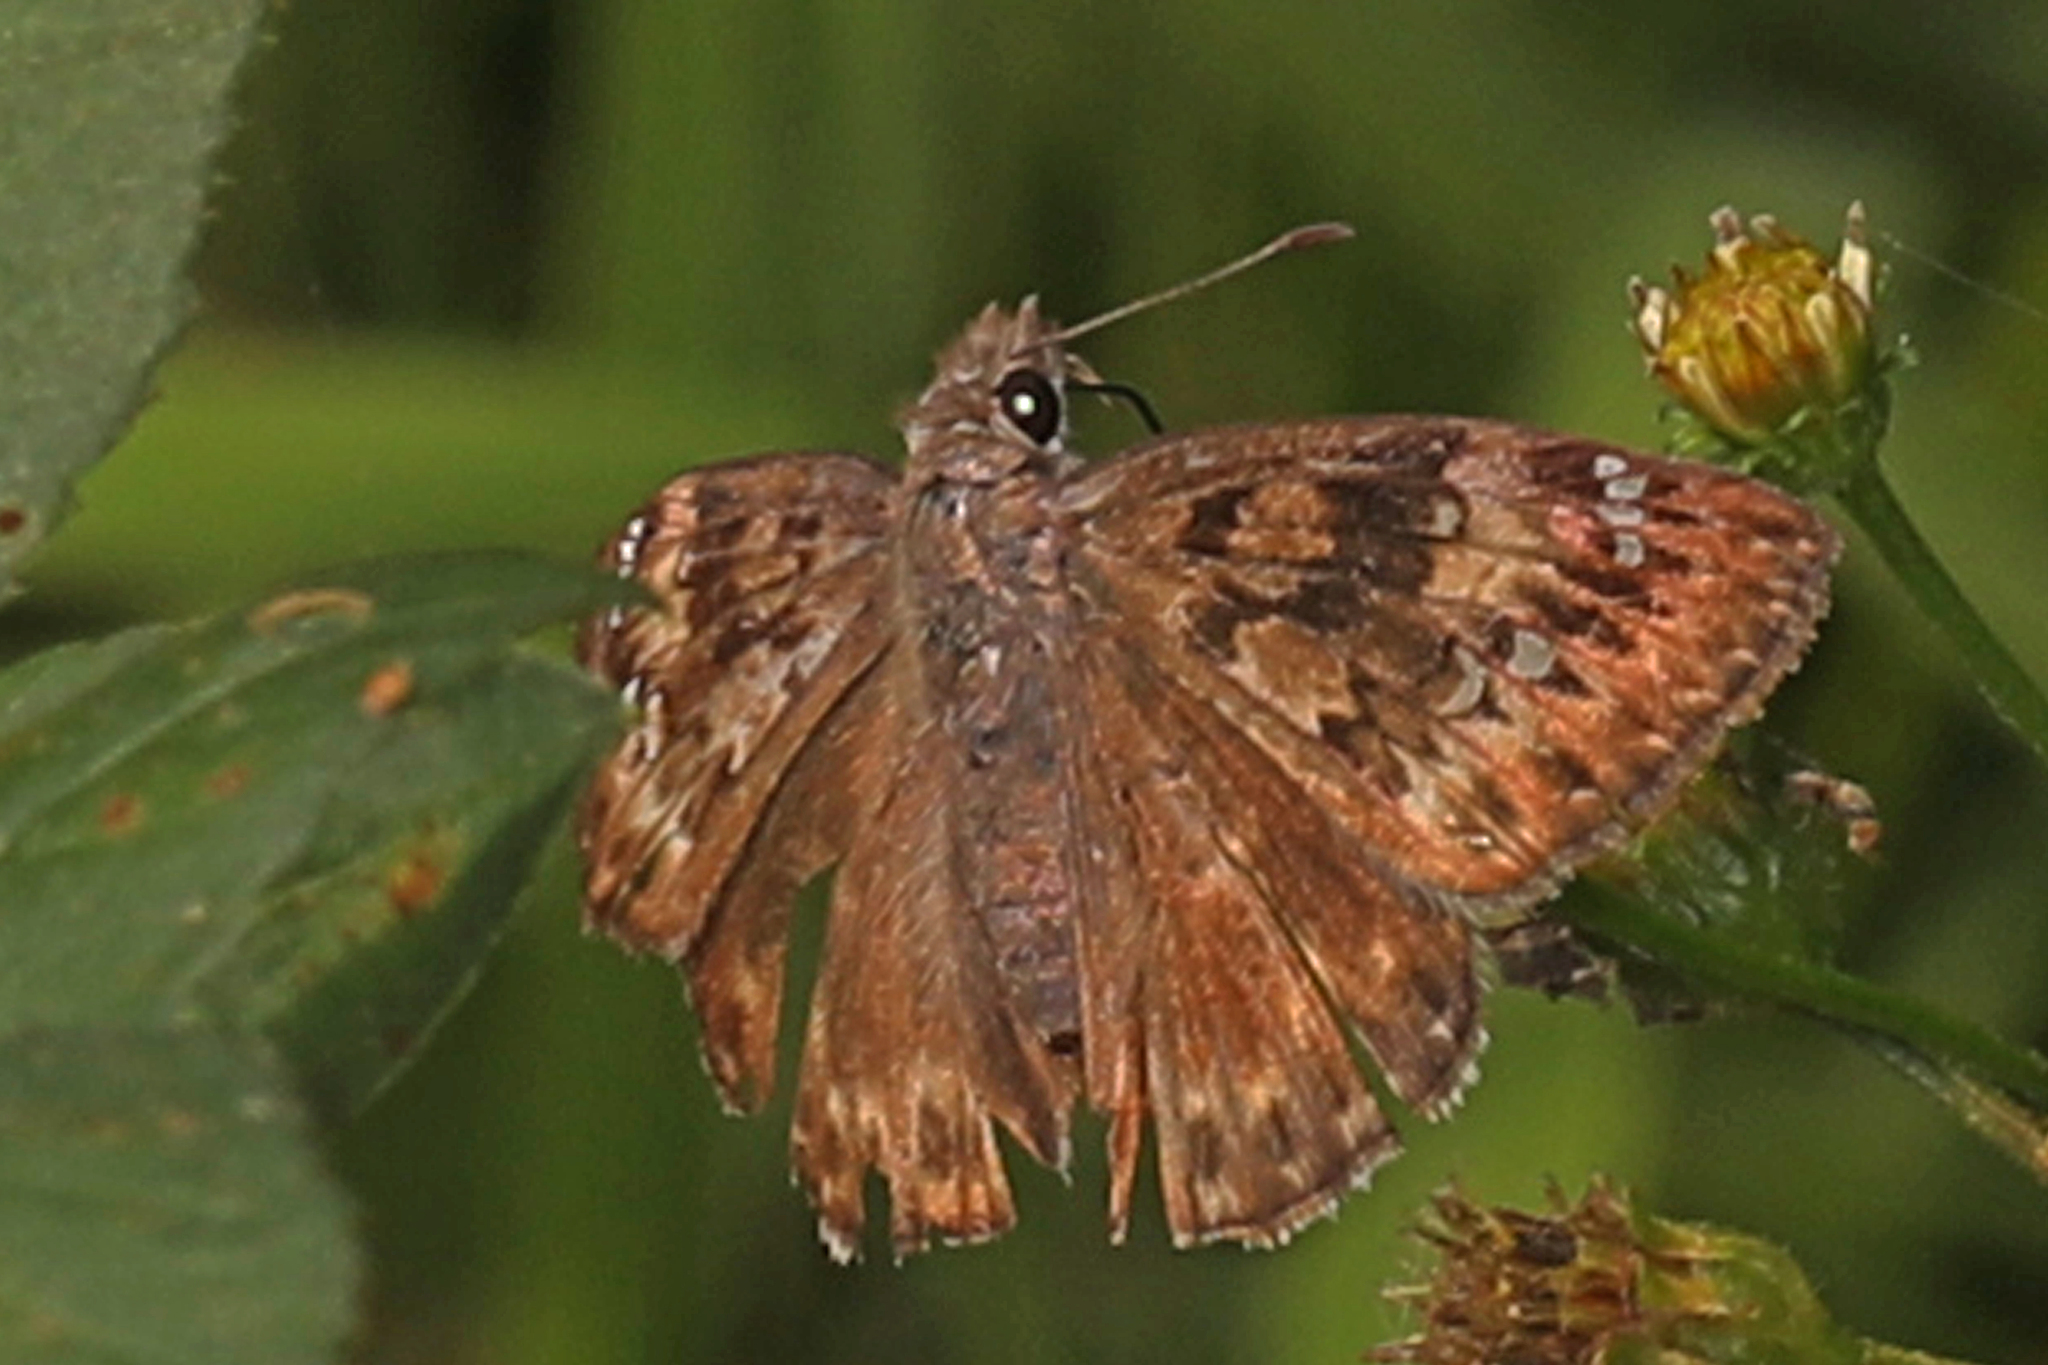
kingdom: Animalia
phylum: Arthropoda
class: Insecta
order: Lepidoptera
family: Hesperiidae
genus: Erynnis
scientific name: Erynnis horatius
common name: Horace's duskywing
